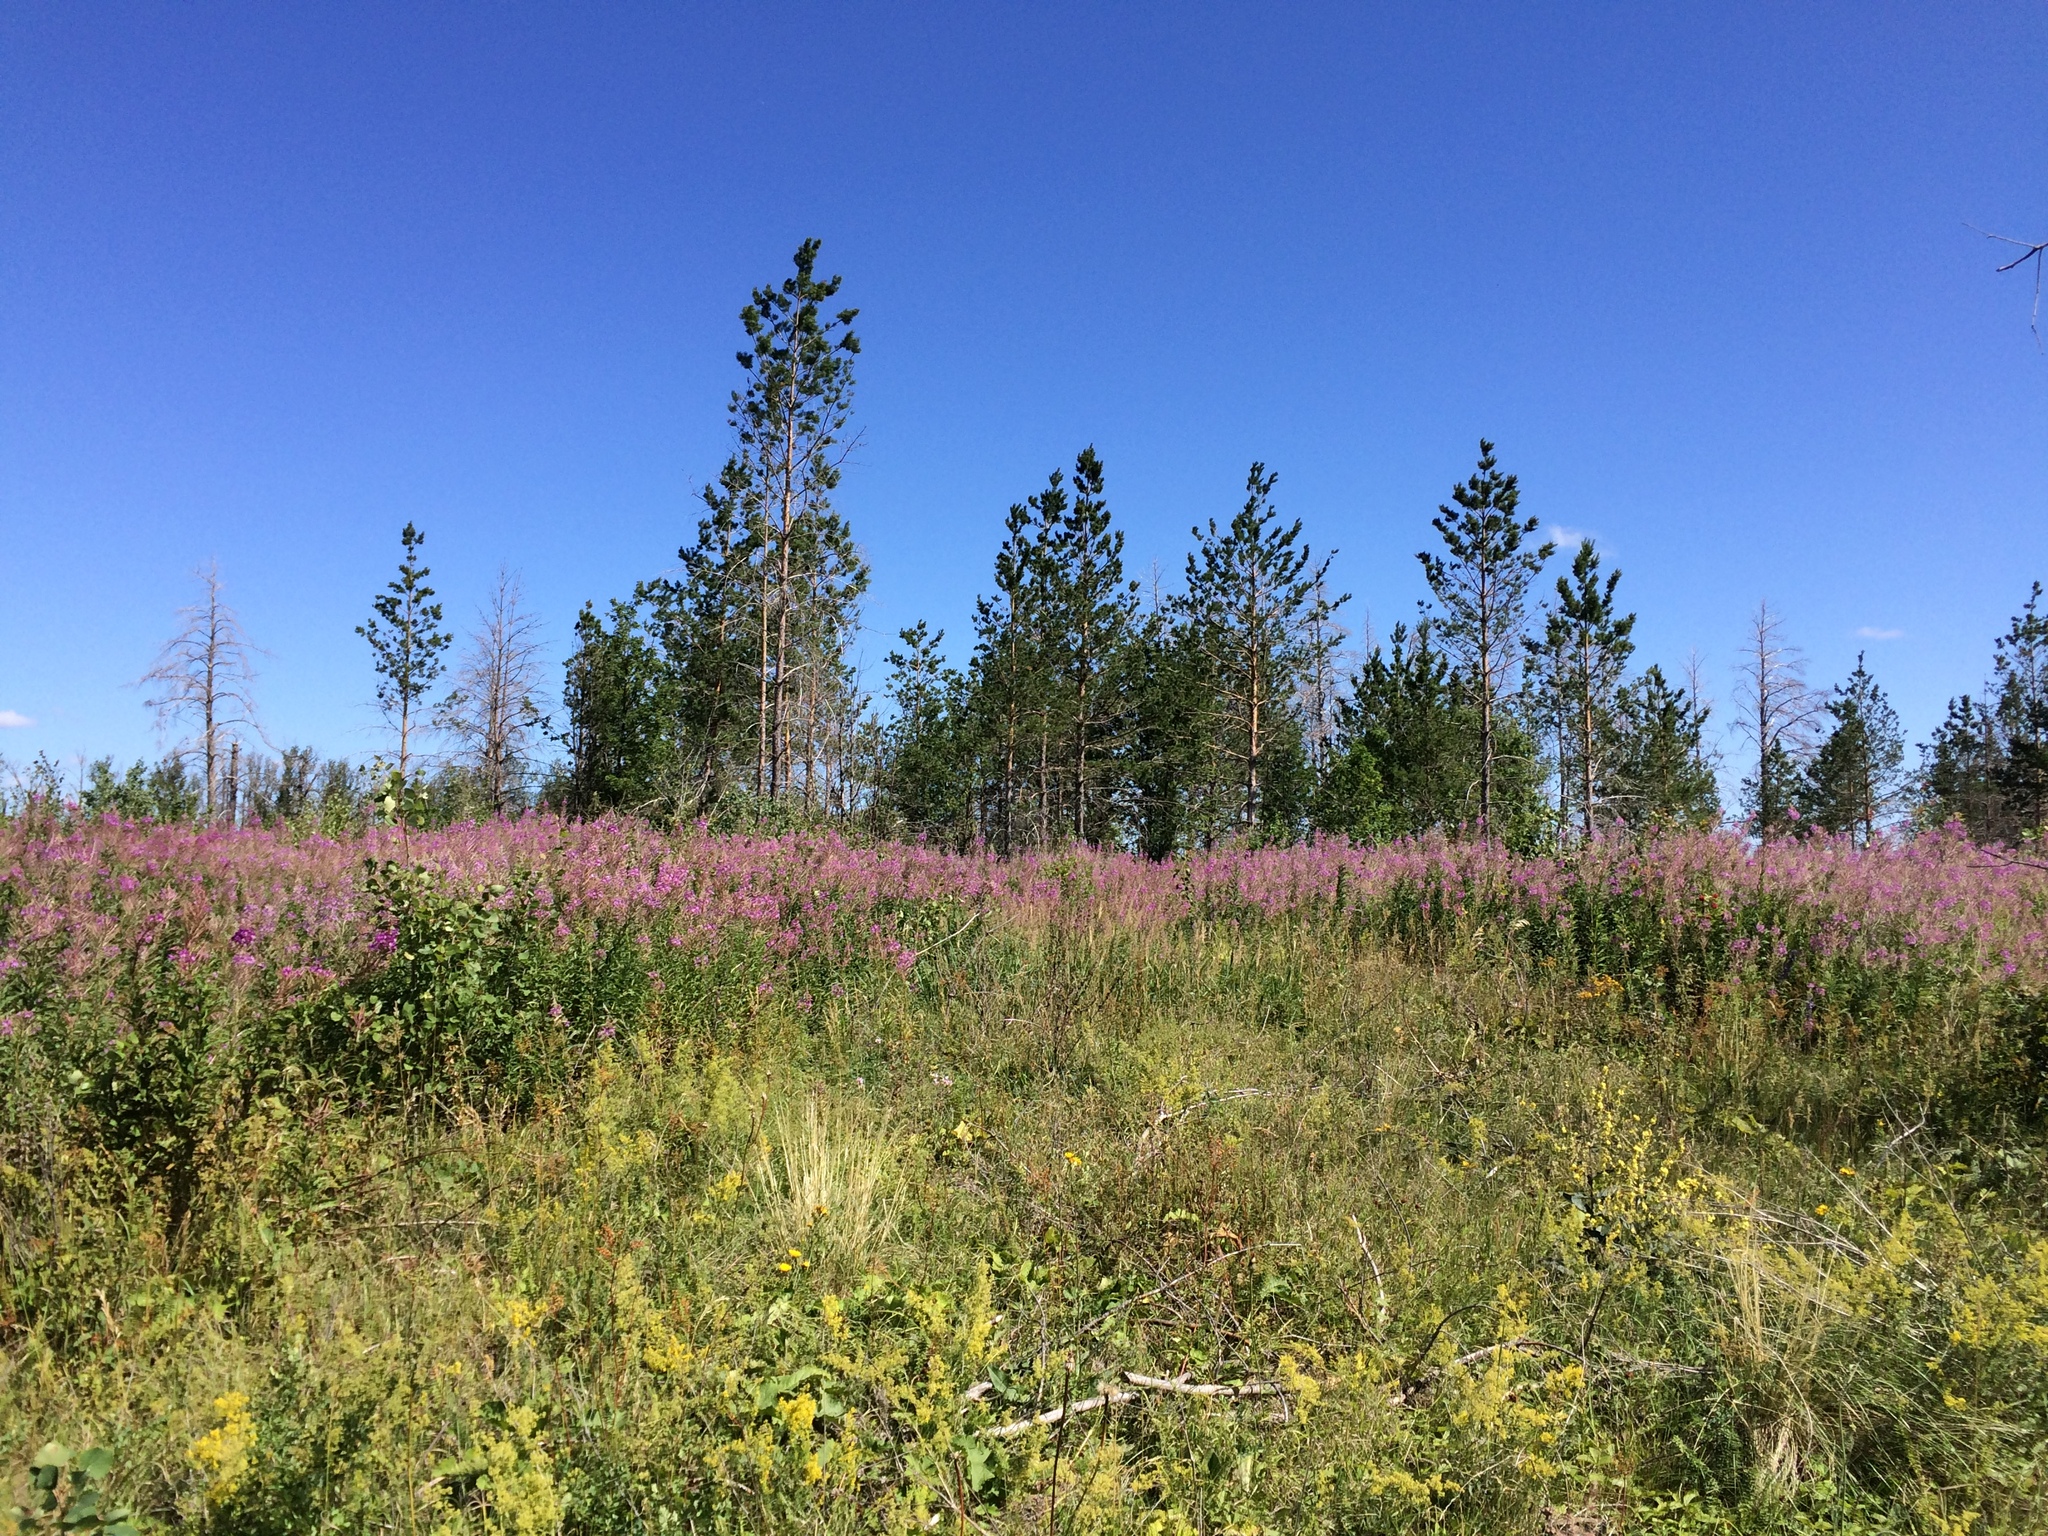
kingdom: Plantae
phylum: Tracheophyta
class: Magnoliopsida
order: Myrtales
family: Onagraceae
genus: Chamaenerion
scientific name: Chamaenerion angustifolium
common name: Fireweed
